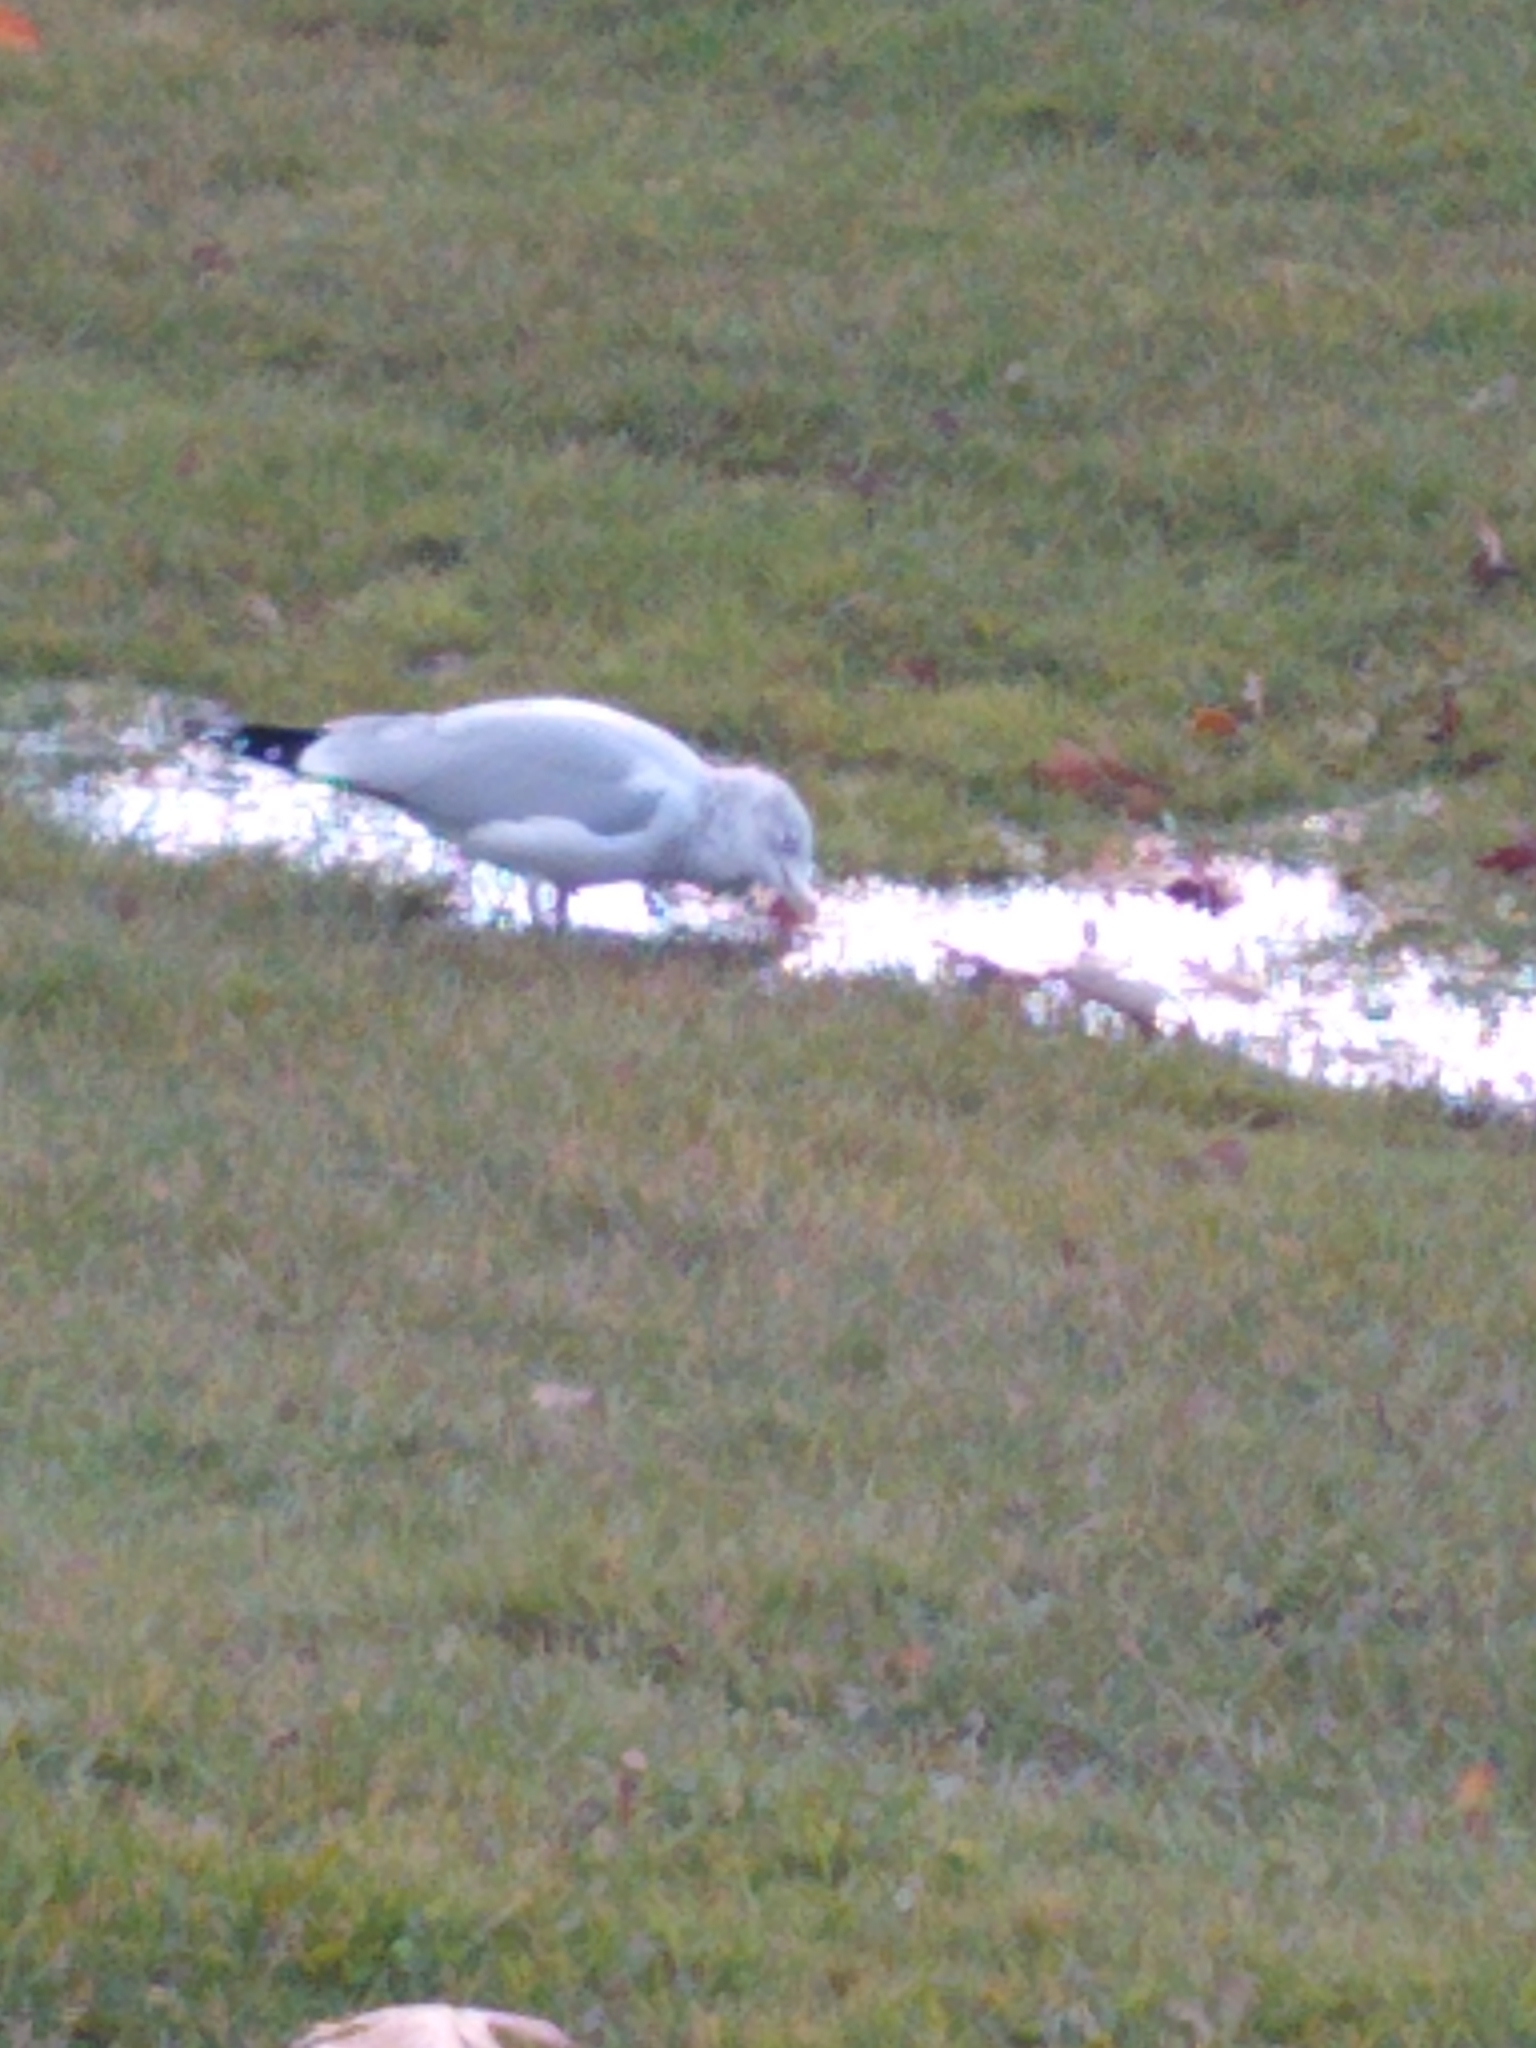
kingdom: Animalia
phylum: Chordata
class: Aves
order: Charadriiformes
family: Laridae
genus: Larus
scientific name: Larus delawarensis
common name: Ring-billed gull
